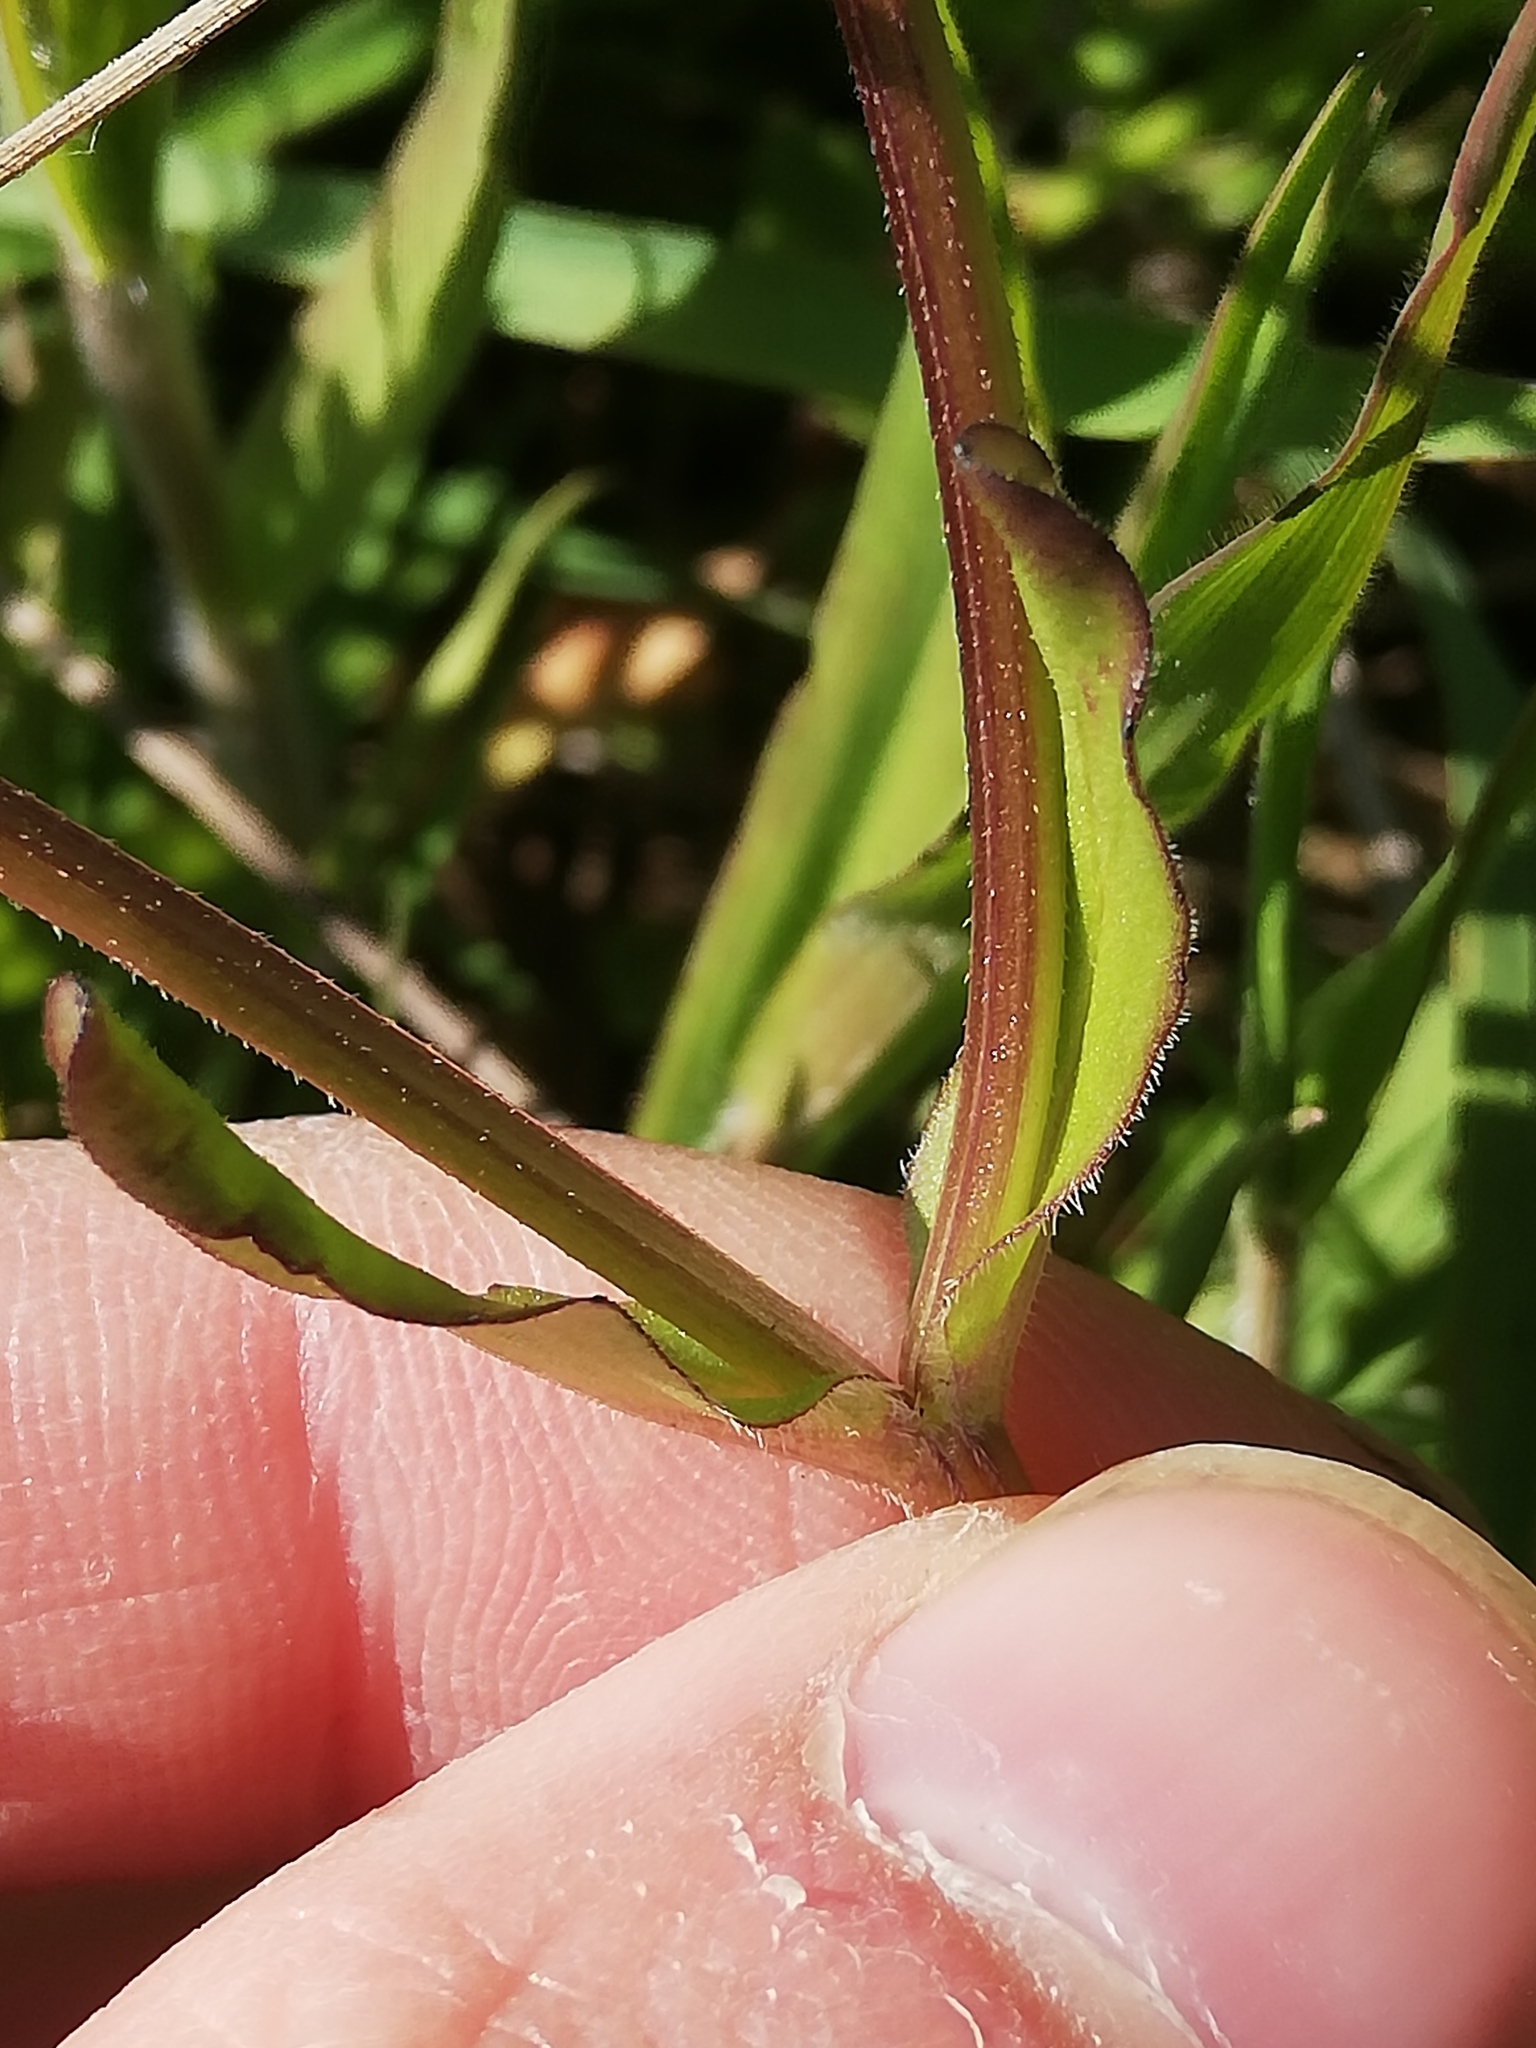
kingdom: Plantae
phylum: Tracheophyta
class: Magnoliopsida
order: Dipsacales
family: Caprifoliaceae
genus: Valerianella
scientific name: Valerianella locusta
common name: Common cornsalad
